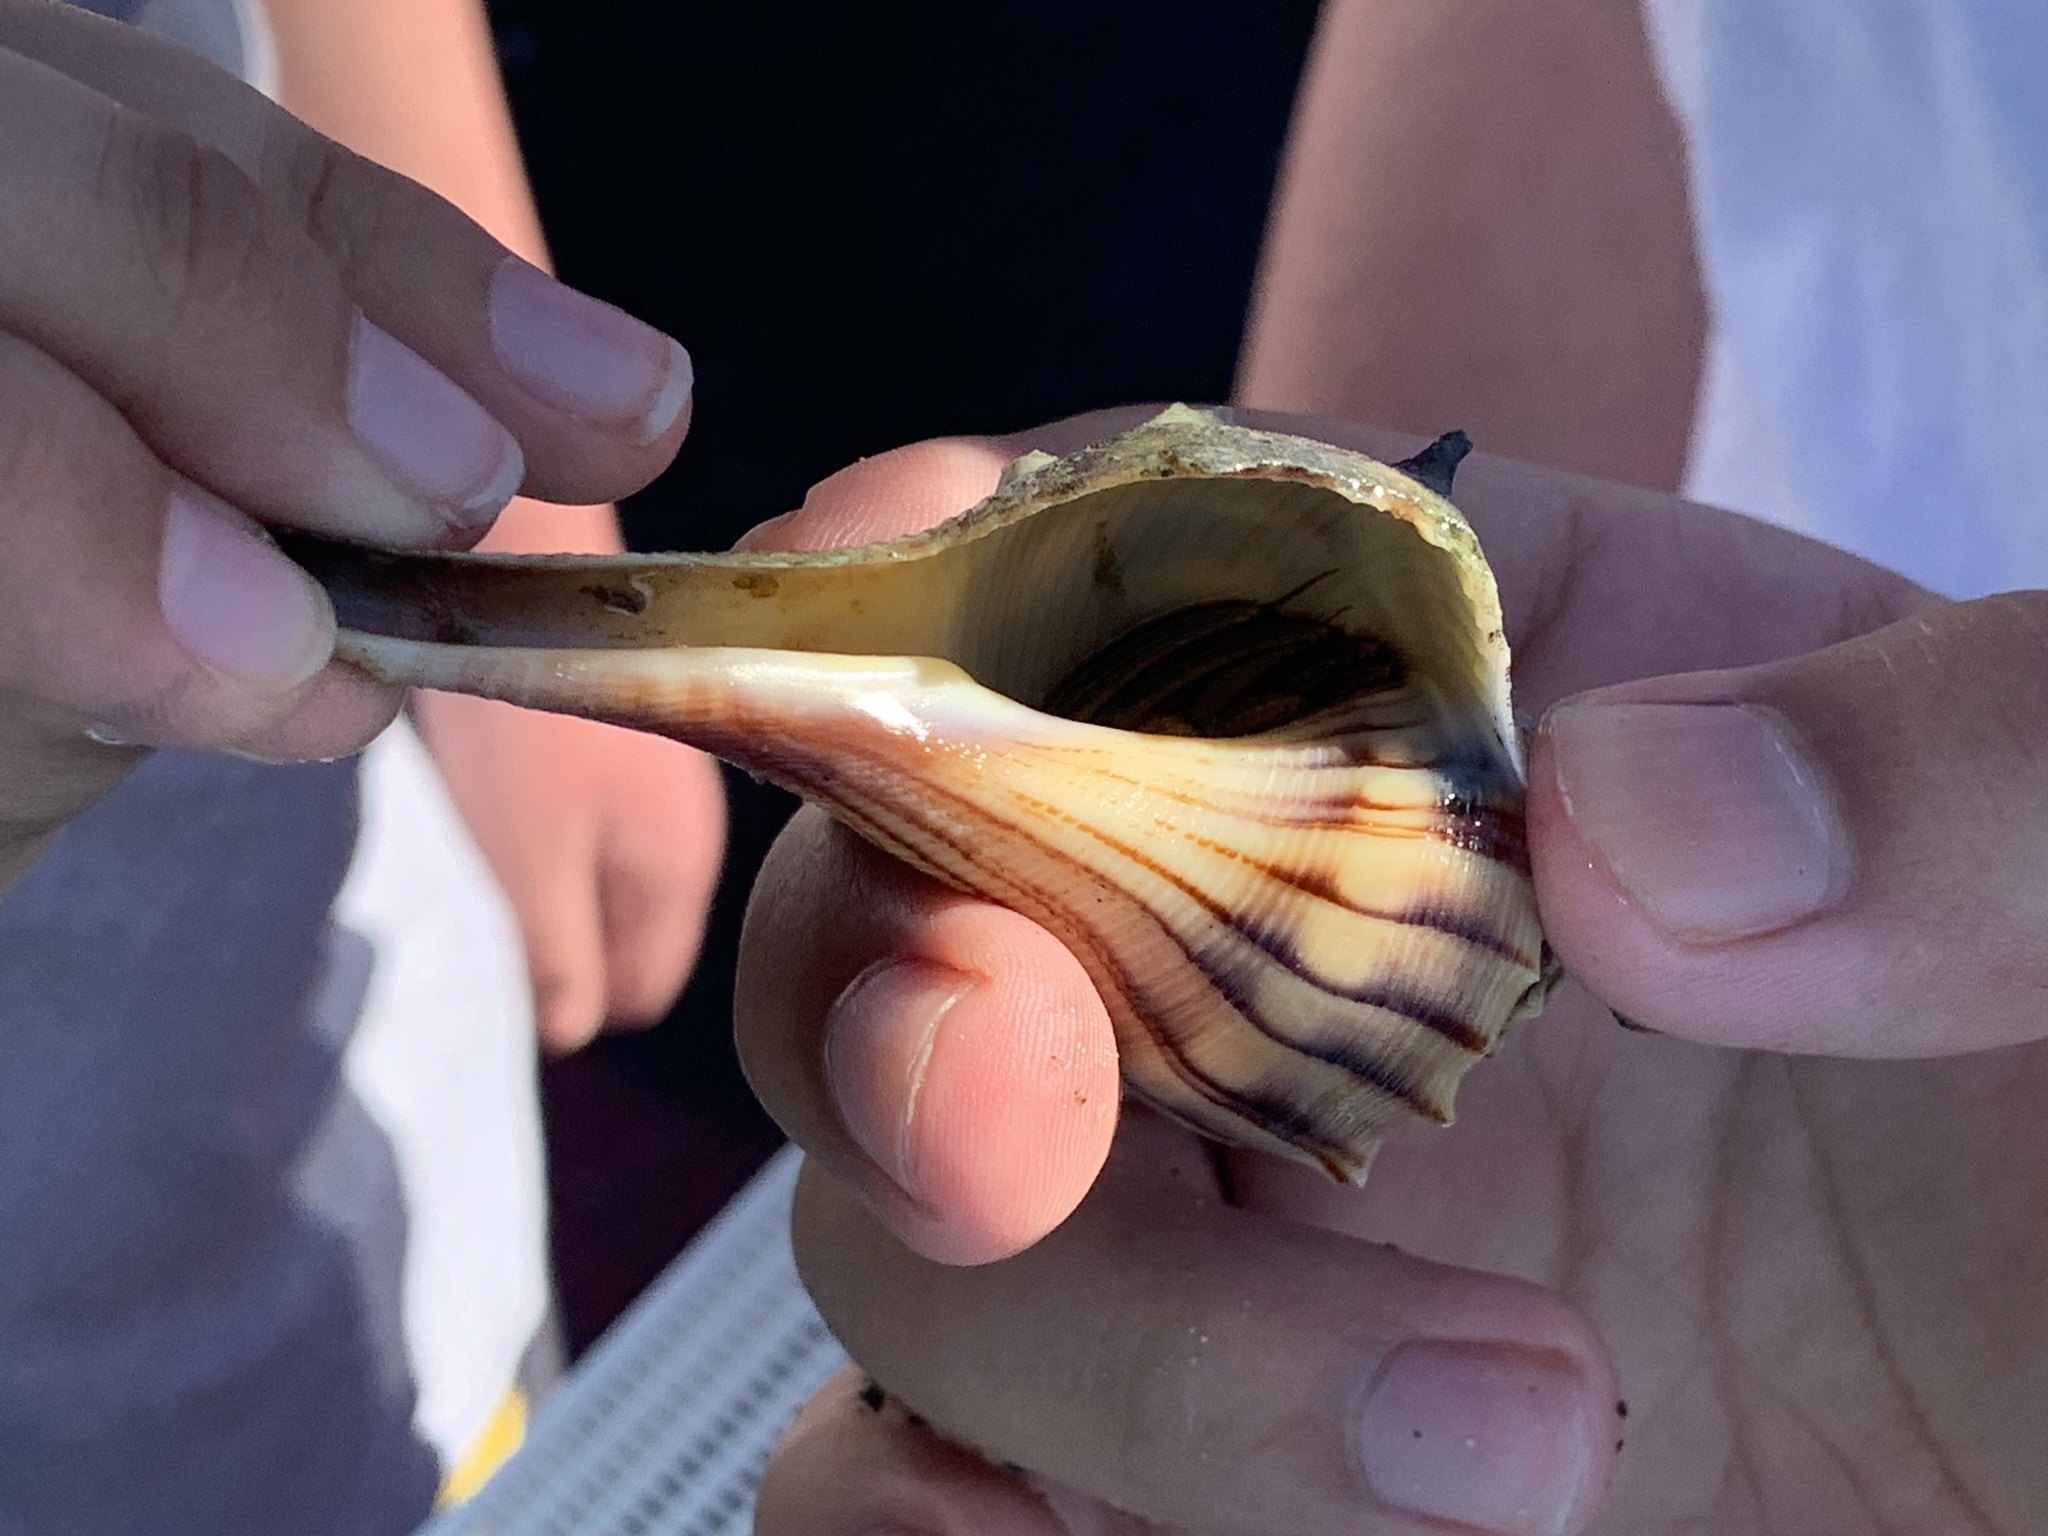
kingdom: Animalia
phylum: Arthropoda
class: Malacostraca
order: Decapoda
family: Diogenidae
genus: Clibanarius
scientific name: Clibanarius vittatus
